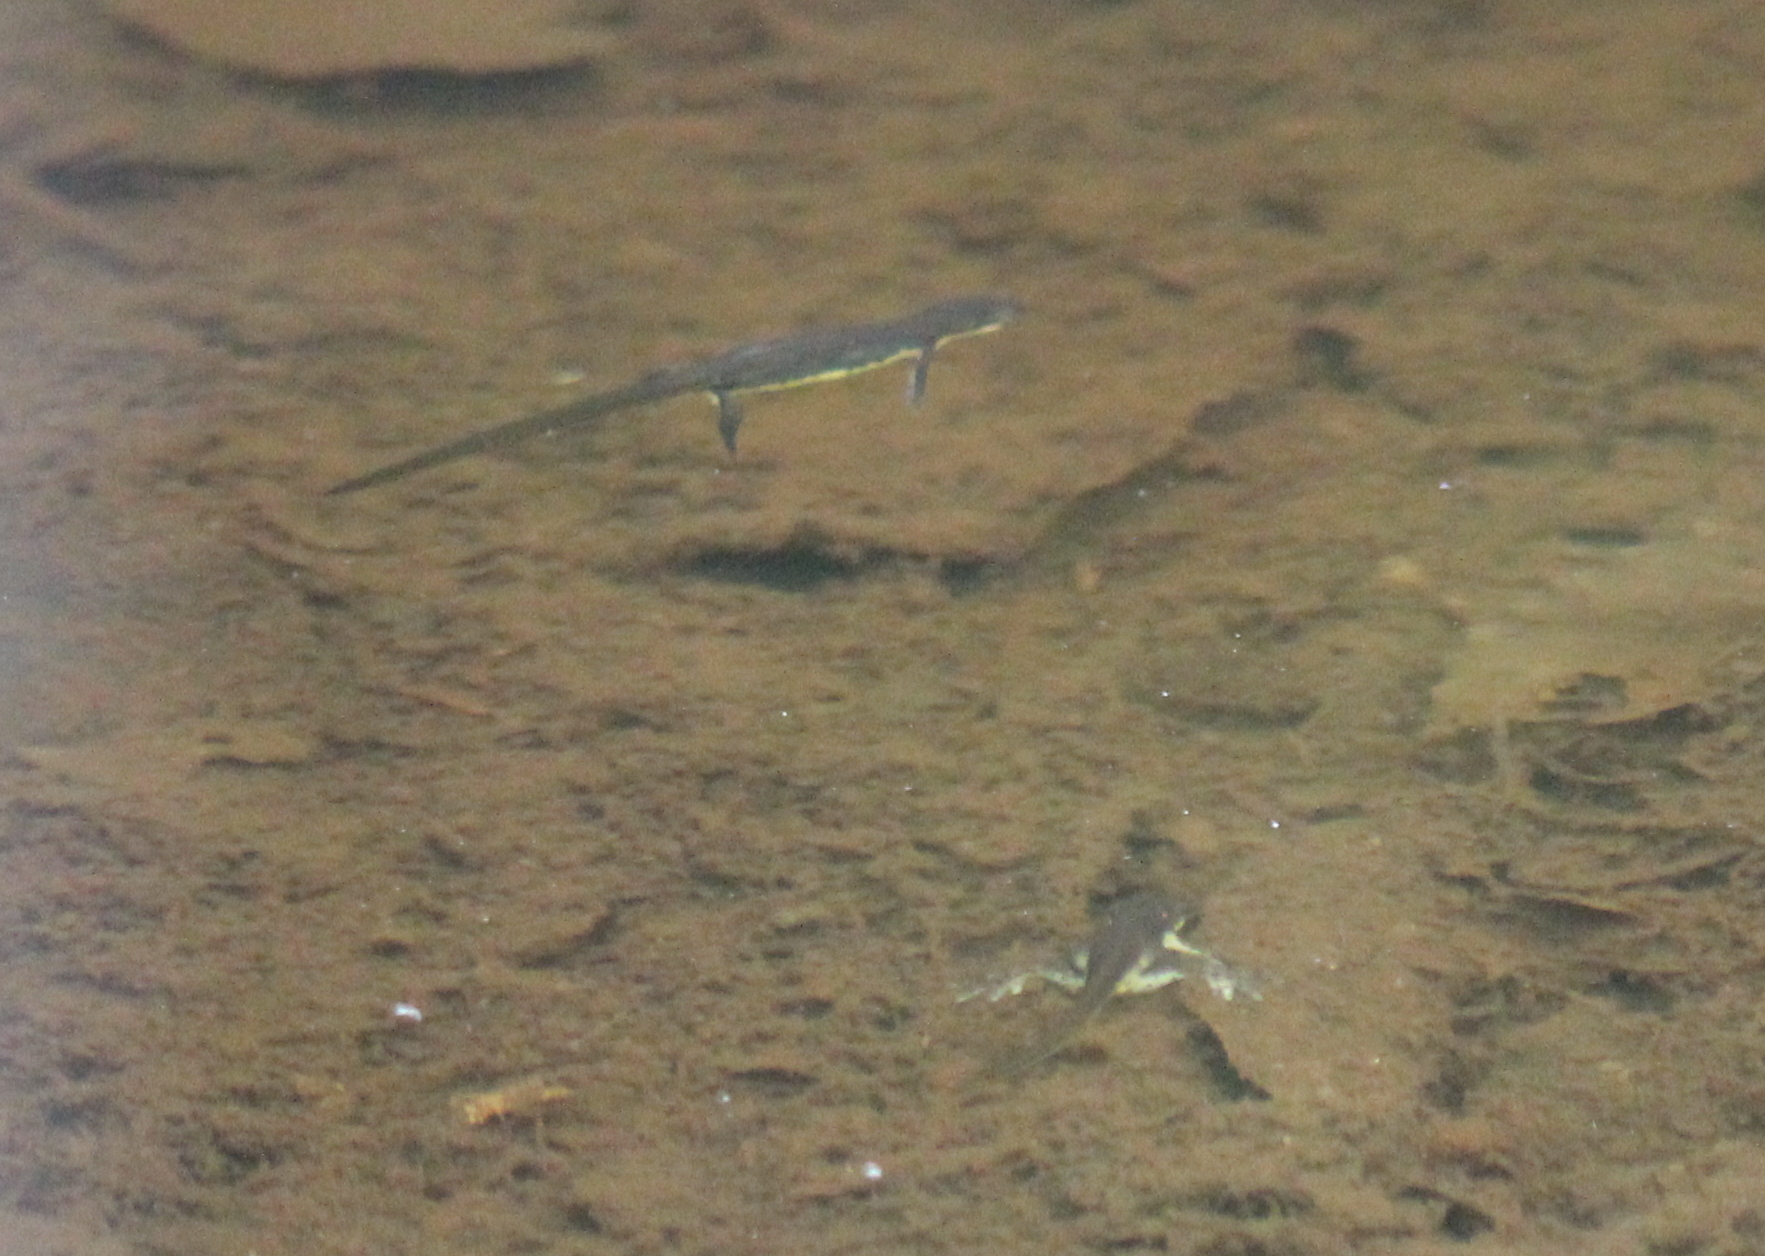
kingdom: Animalia
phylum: Chordata
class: Amphibia
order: Caudata
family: Salamandridae
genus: Notophthalmus
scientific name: Notophthalmus viridescens
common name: Eastern newt
